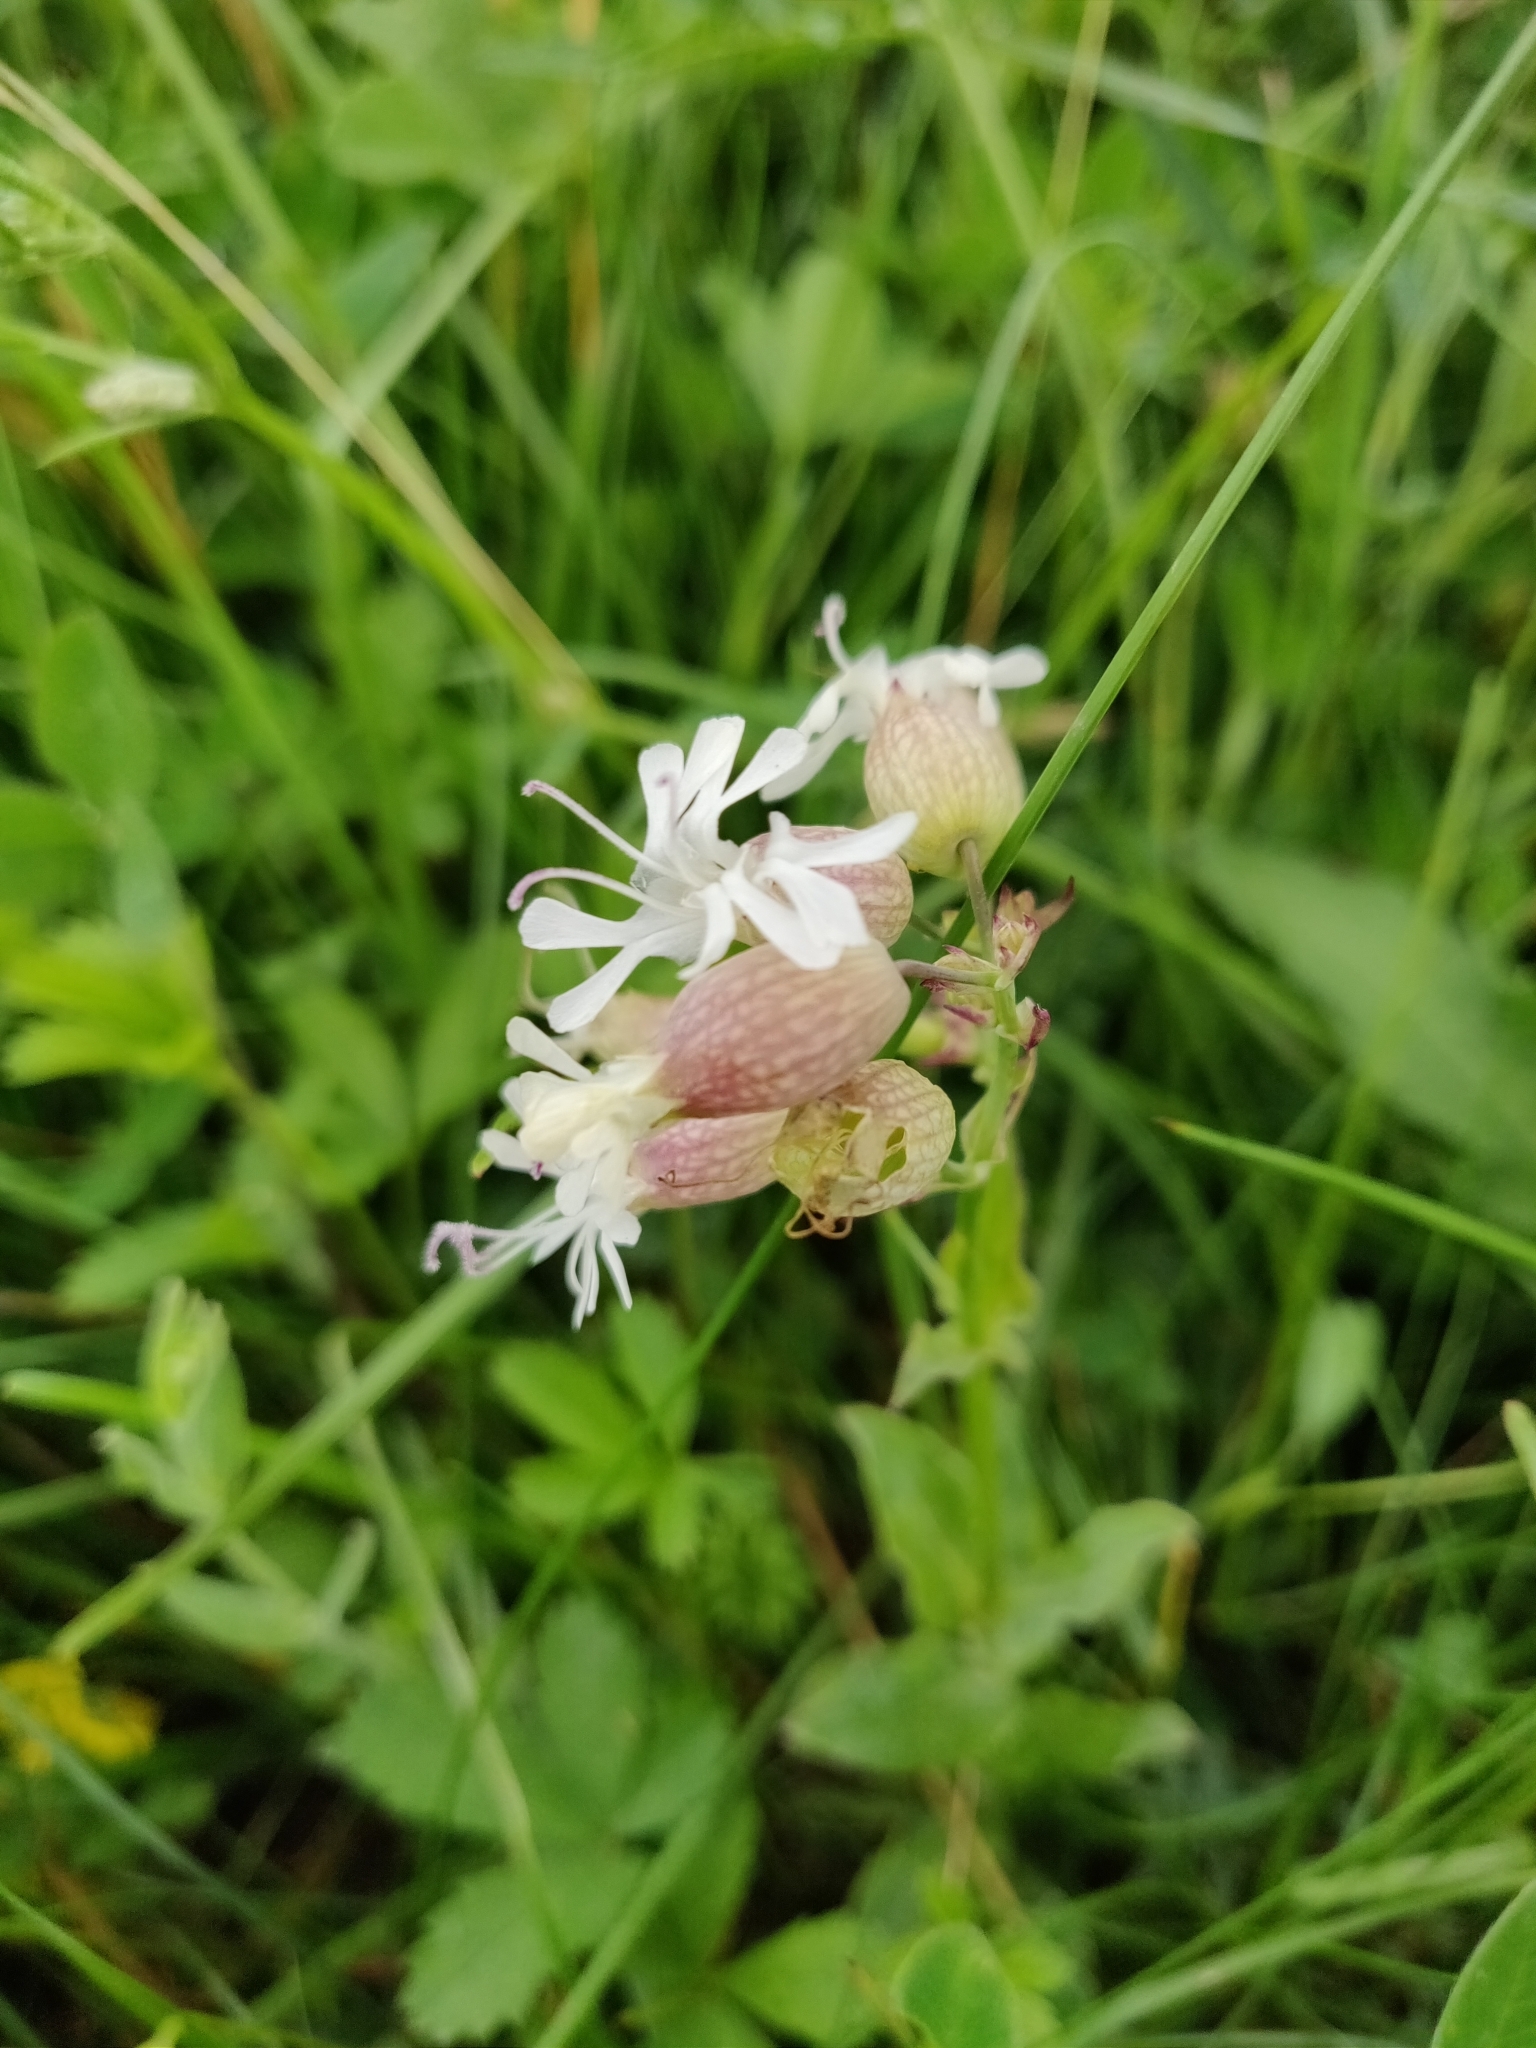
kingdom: Plantae
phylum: Tracheophyta
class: Magnoliopsida
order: Caryophyllales
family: Caryophyllaceae
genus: Silene
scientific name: Silene vulgaris
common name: Bladder campion
